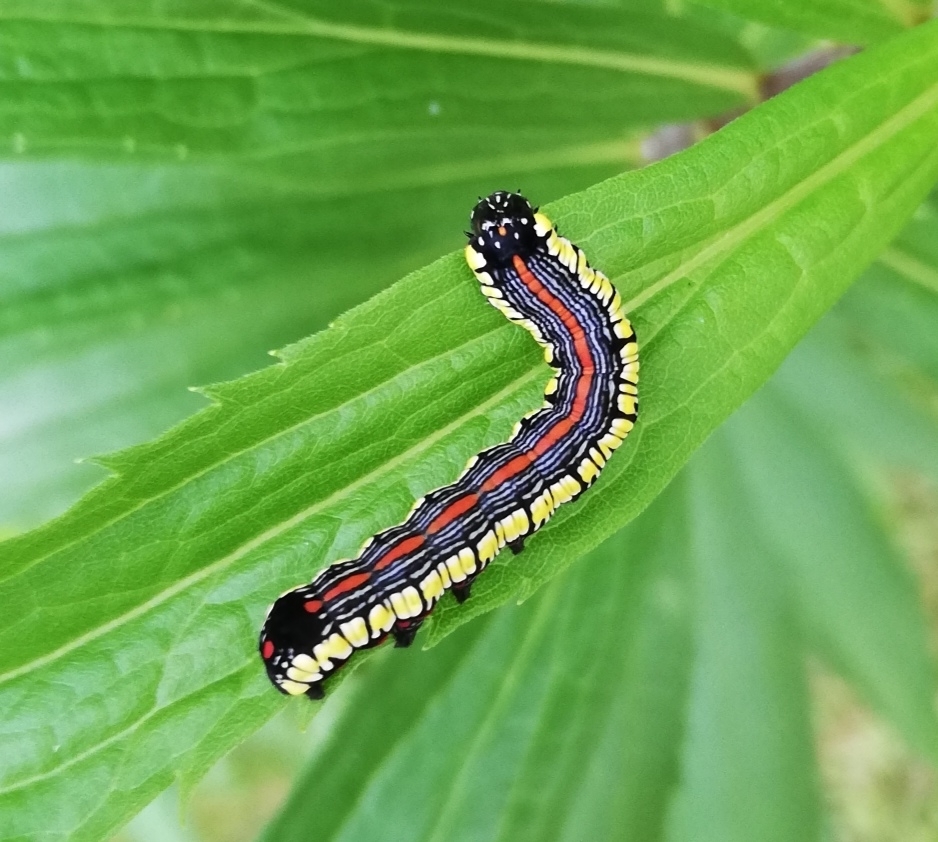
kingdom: Animalia
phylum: Arthropoda
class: Insecta
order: Lepidoptera
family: Noctuidae
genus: Cucullia
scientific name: Cucullia convexipennis
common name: Brown-hooded owlet
